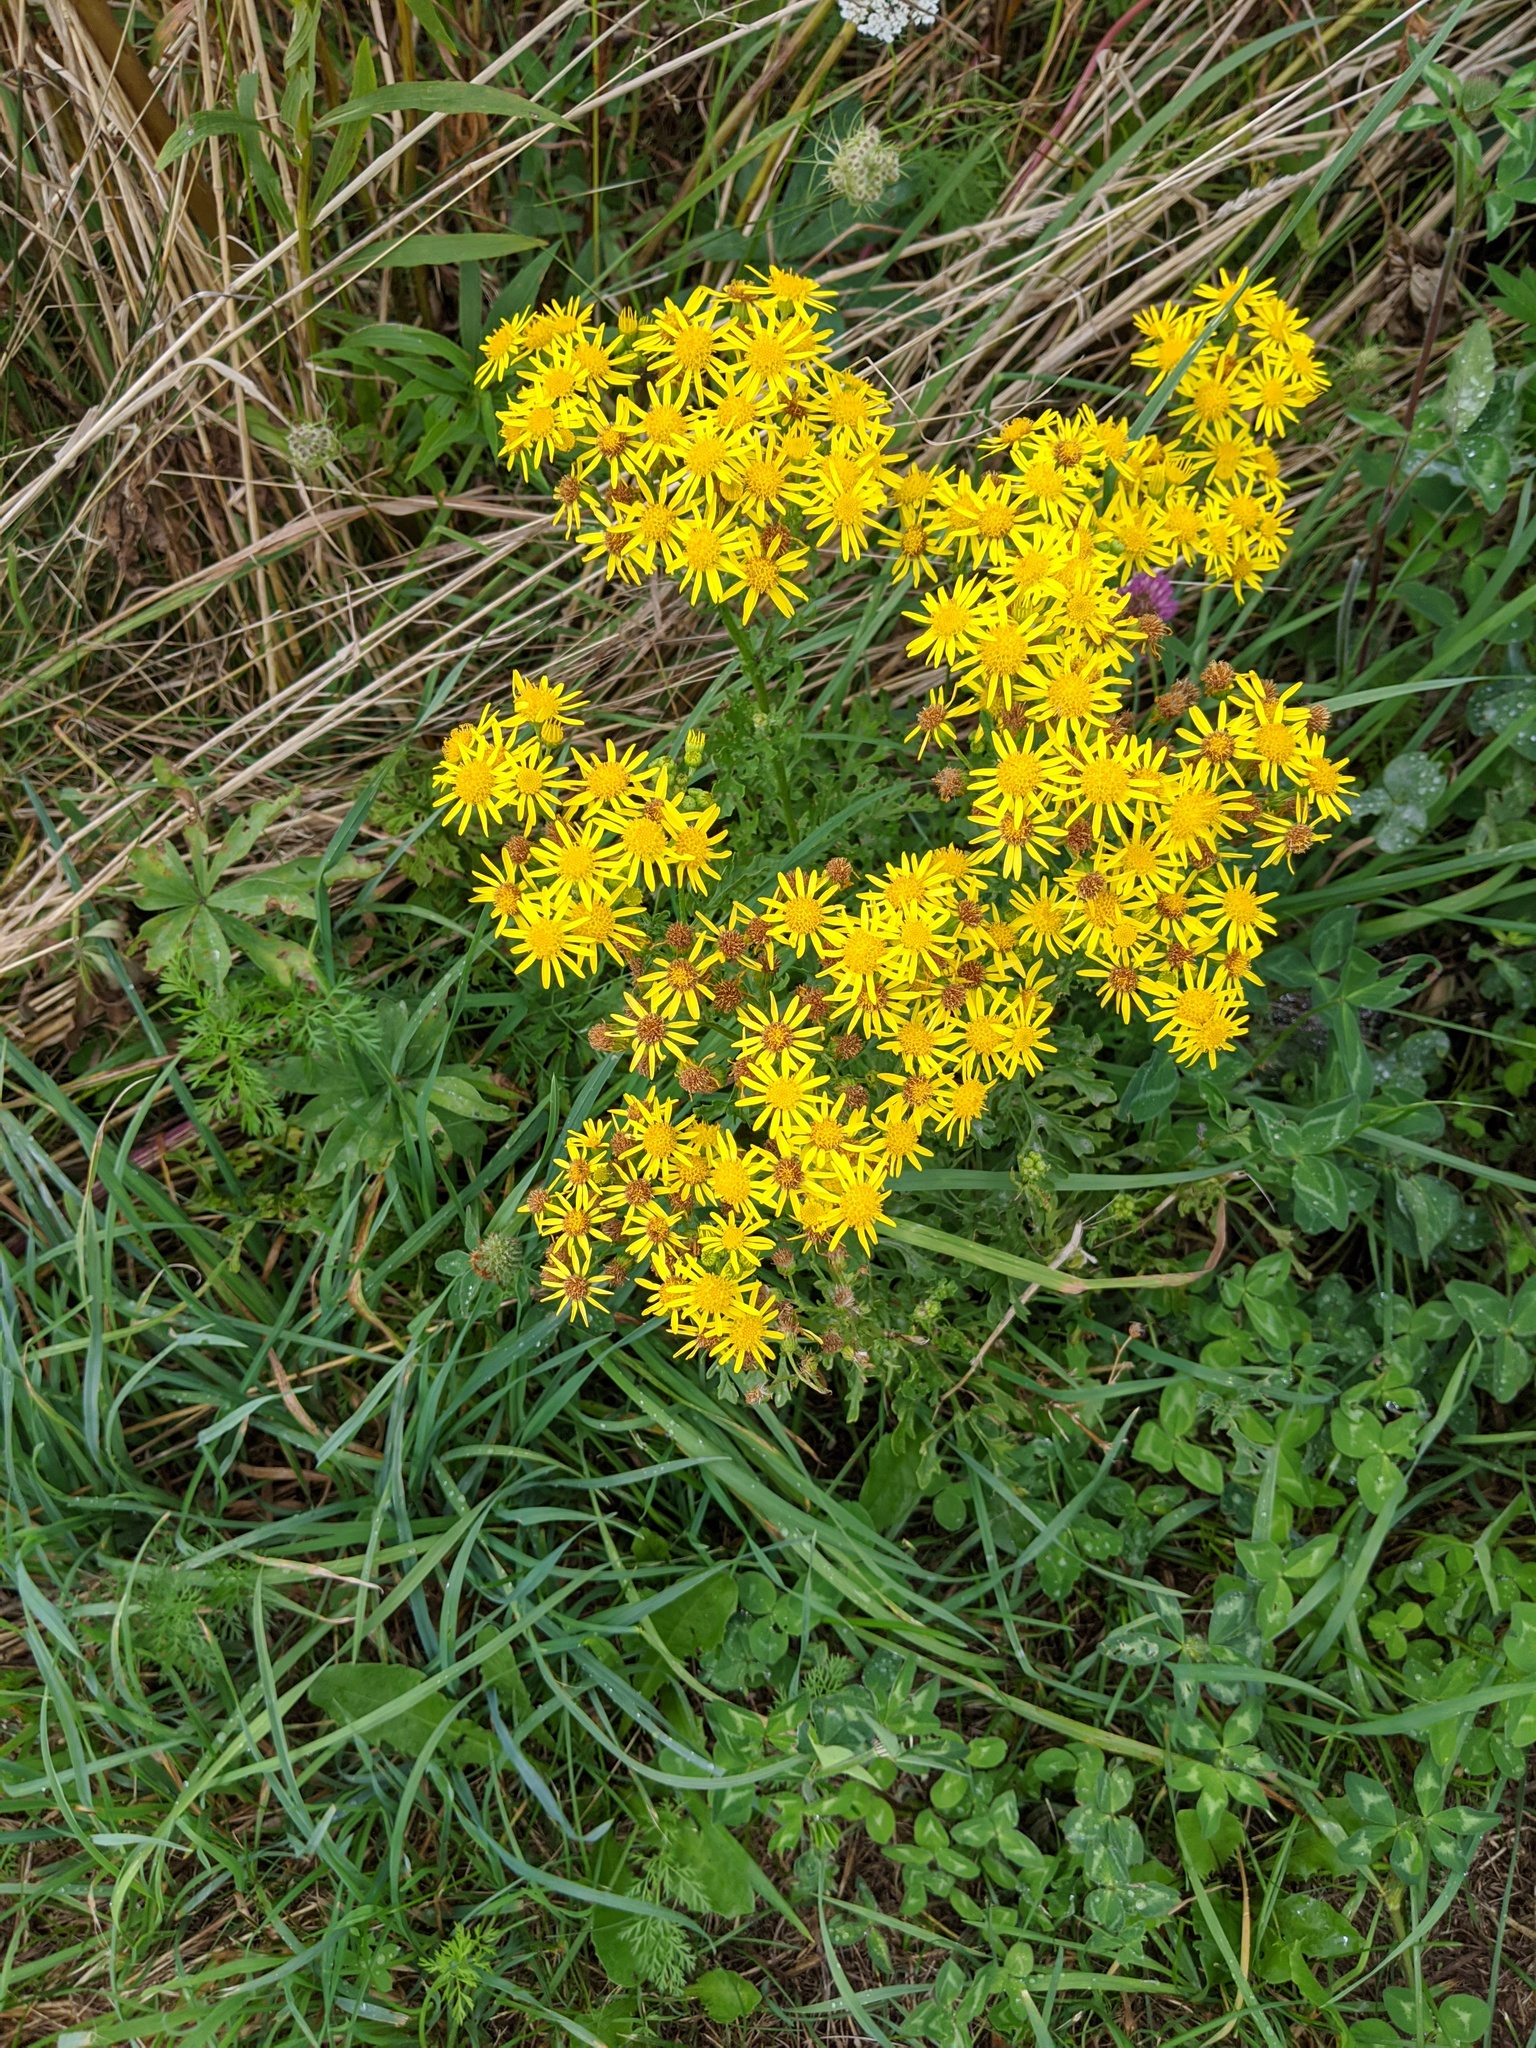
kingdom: Plantae
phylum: Tracheophyta
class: Magnoliopsida
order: Asterales
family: Asteraceae
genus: Jacobaea
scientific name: Jacobaea vulgaris
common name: Stinking willie
